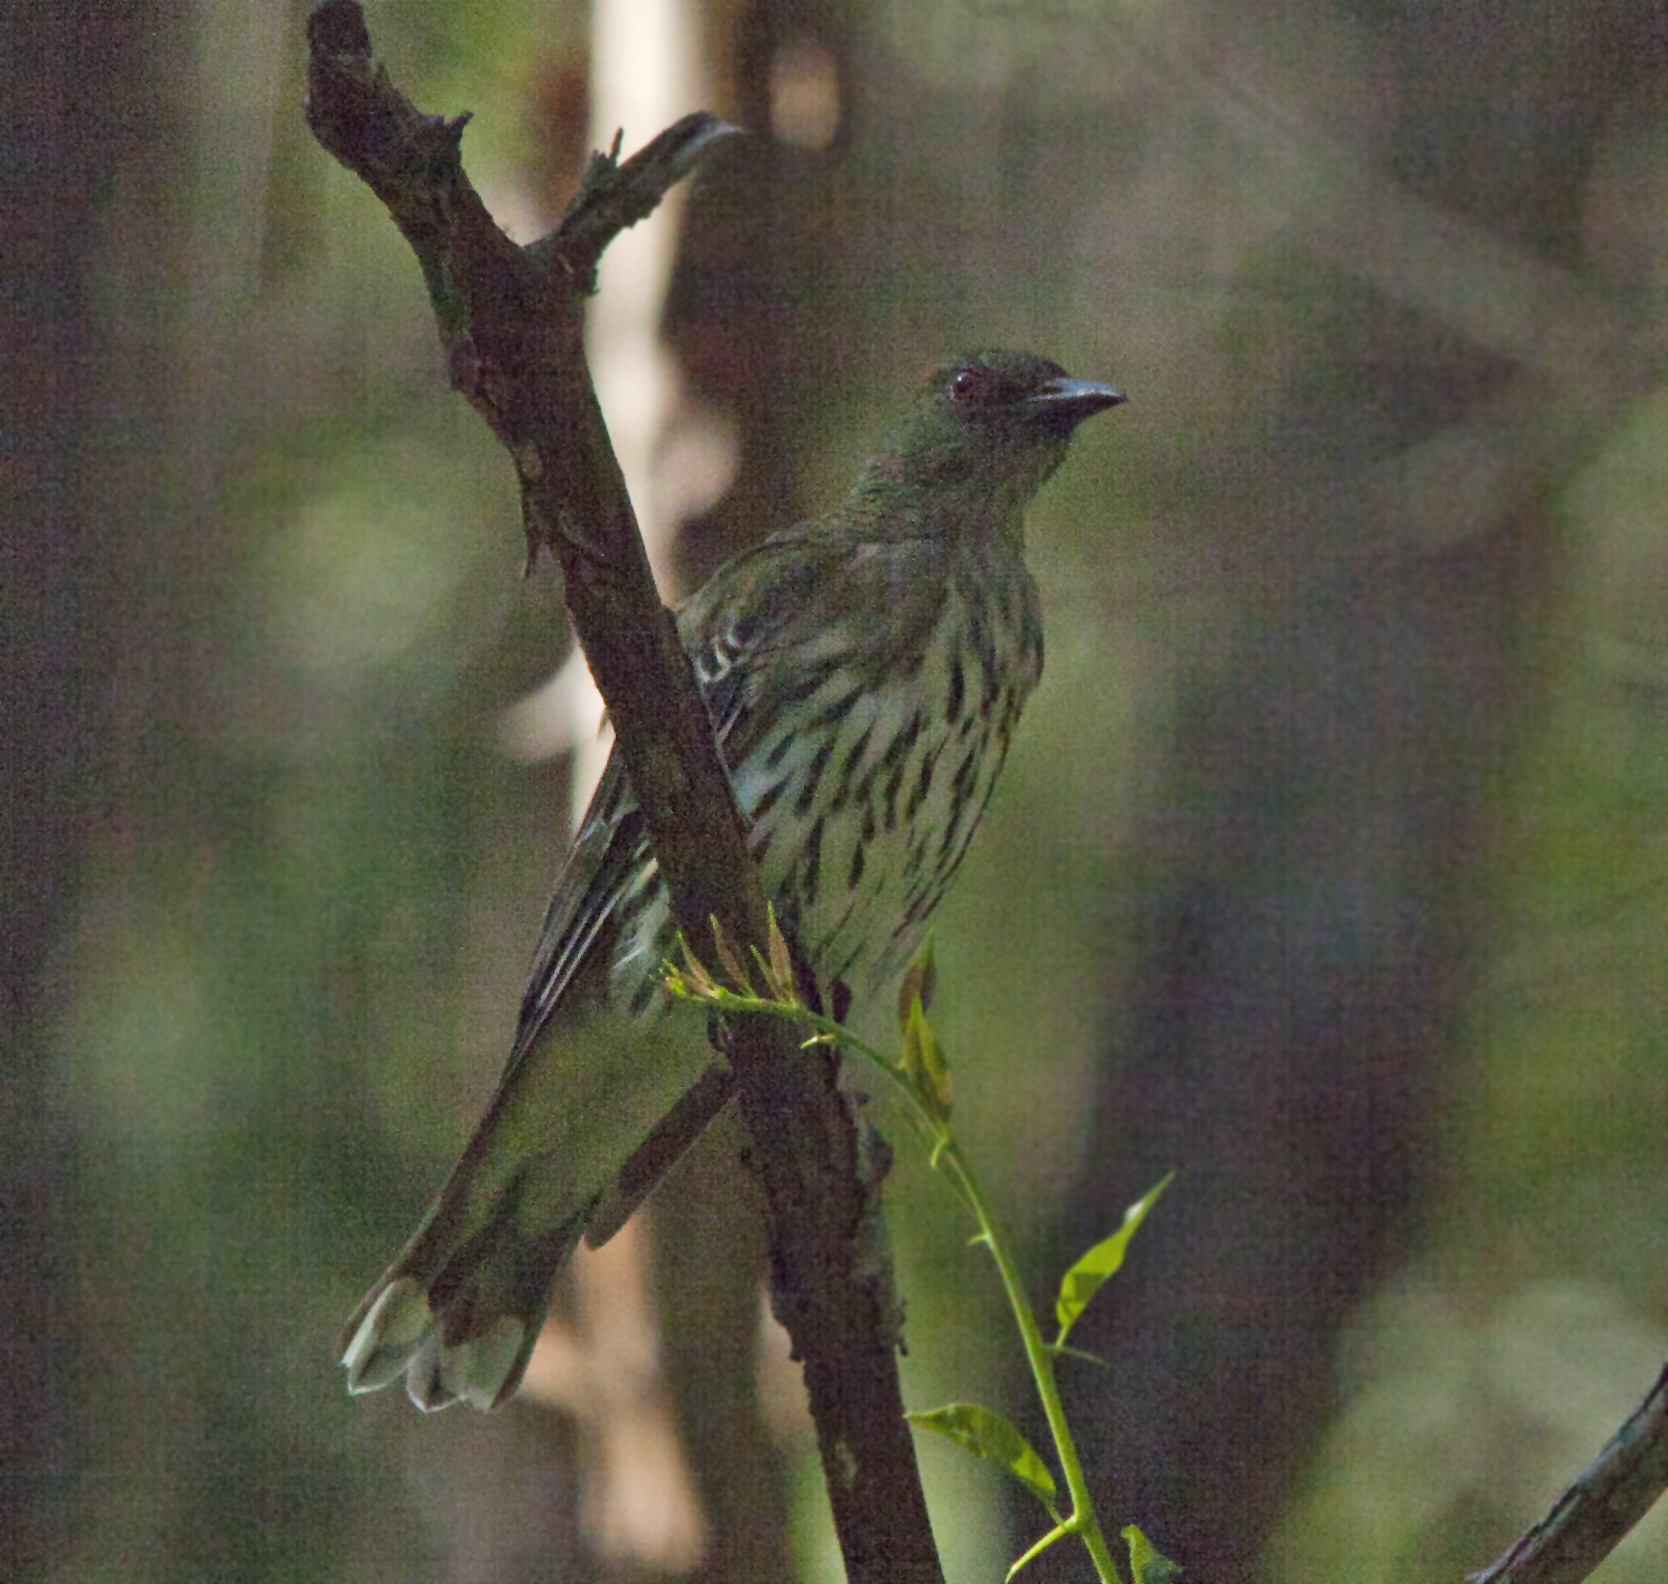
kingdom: Animalia
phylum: Chordata
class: Aves
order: Passeriformes
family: Oriolidae
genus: Oriolus
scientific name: Oriolus sagittatus
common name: Olive-backed oriole
